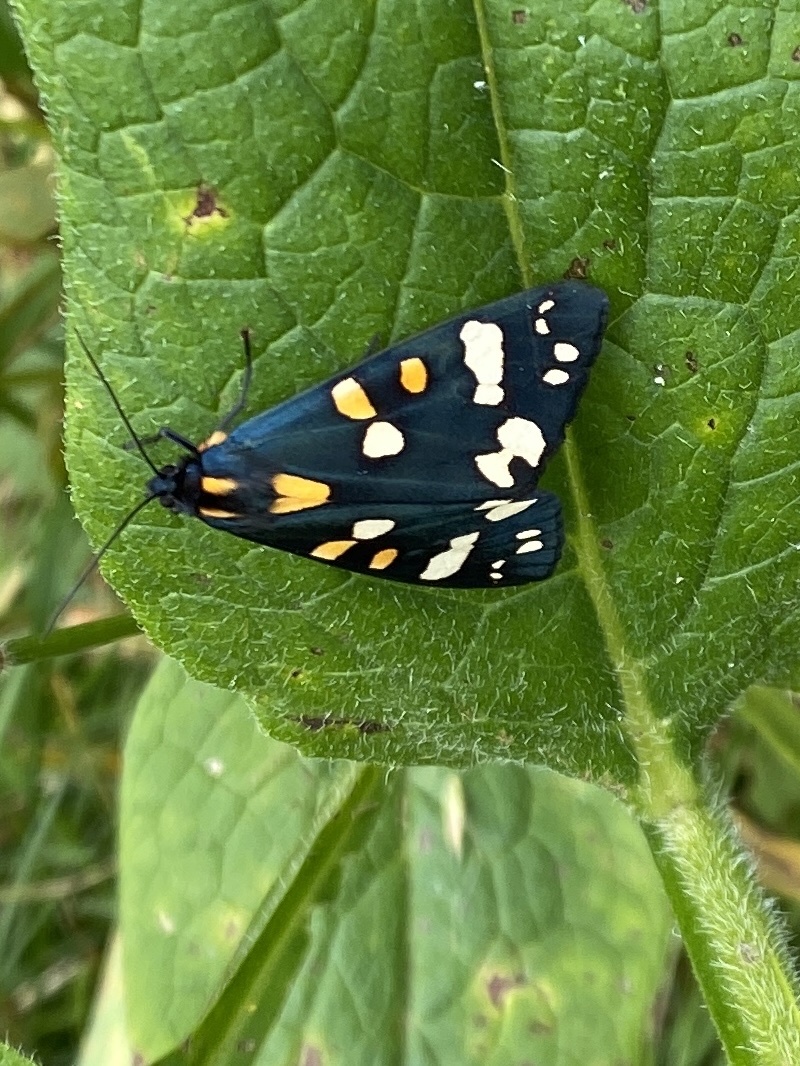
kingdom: Animalia
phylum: Arthropoda
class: Insecta
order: Lepidoptera
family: Erebidae
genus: Callimorpha
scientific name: Callimorpha dominula
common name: Scarlet tiger
